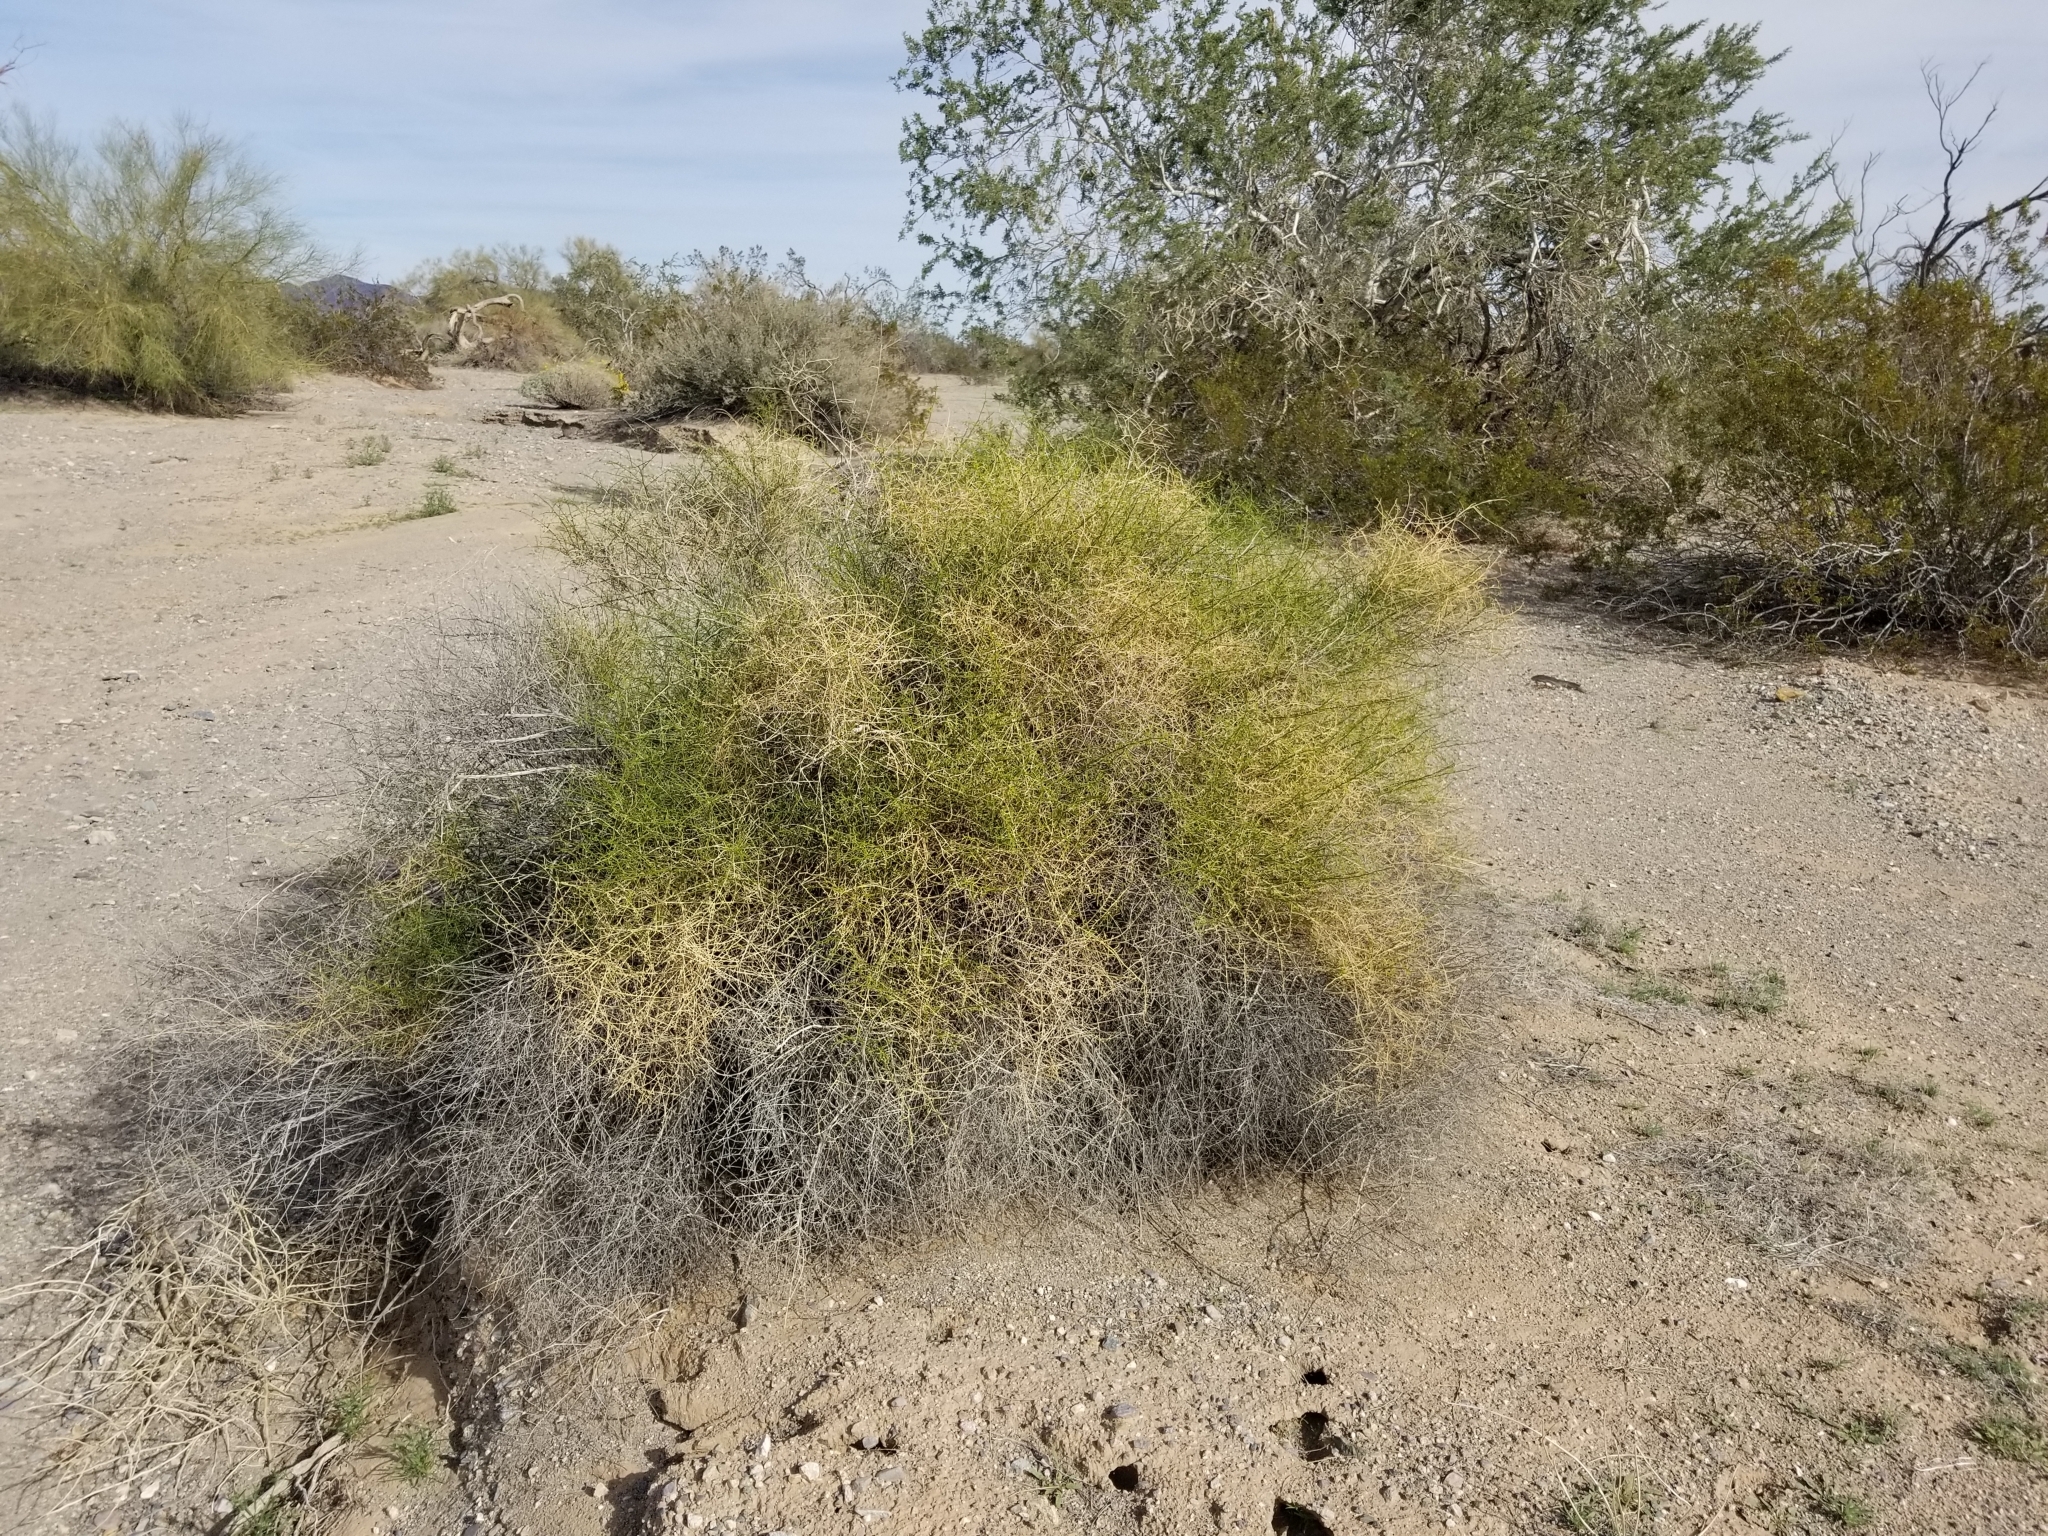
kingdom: Plantae
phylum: Tracheophyta
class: Magnoliopsida
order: Asterales
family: Asteraceae
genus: Ambrosia
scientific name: Ambrosia salsola
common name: Burrobrush
